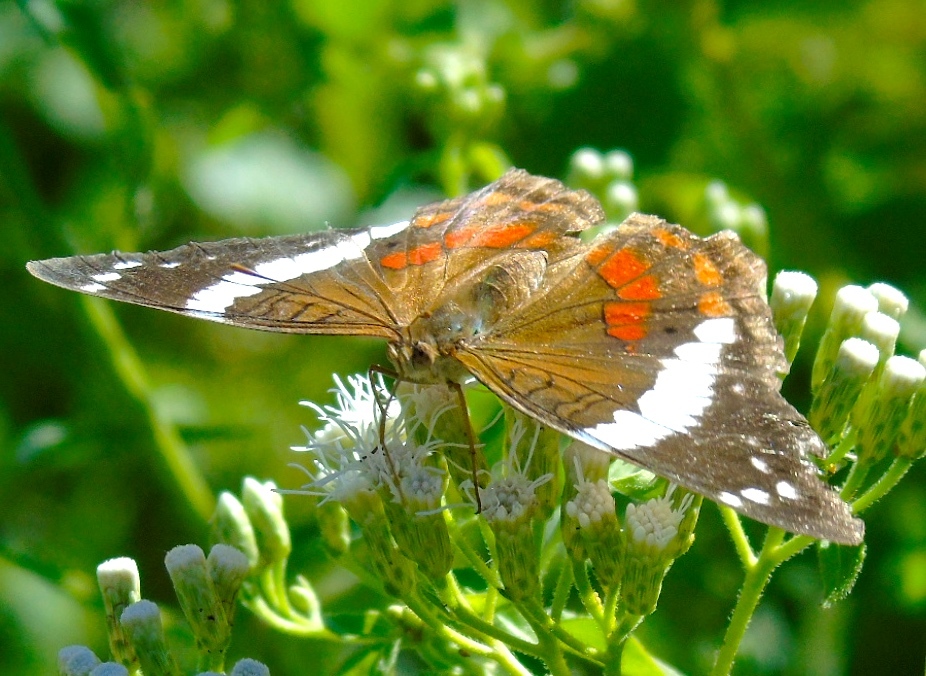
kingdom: Animalia
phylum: Arthropoda
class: Insecta
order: Lepidoptera
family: Nymphalidae
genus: Anartia
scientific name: Anartia fatima
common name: Banded peacock
